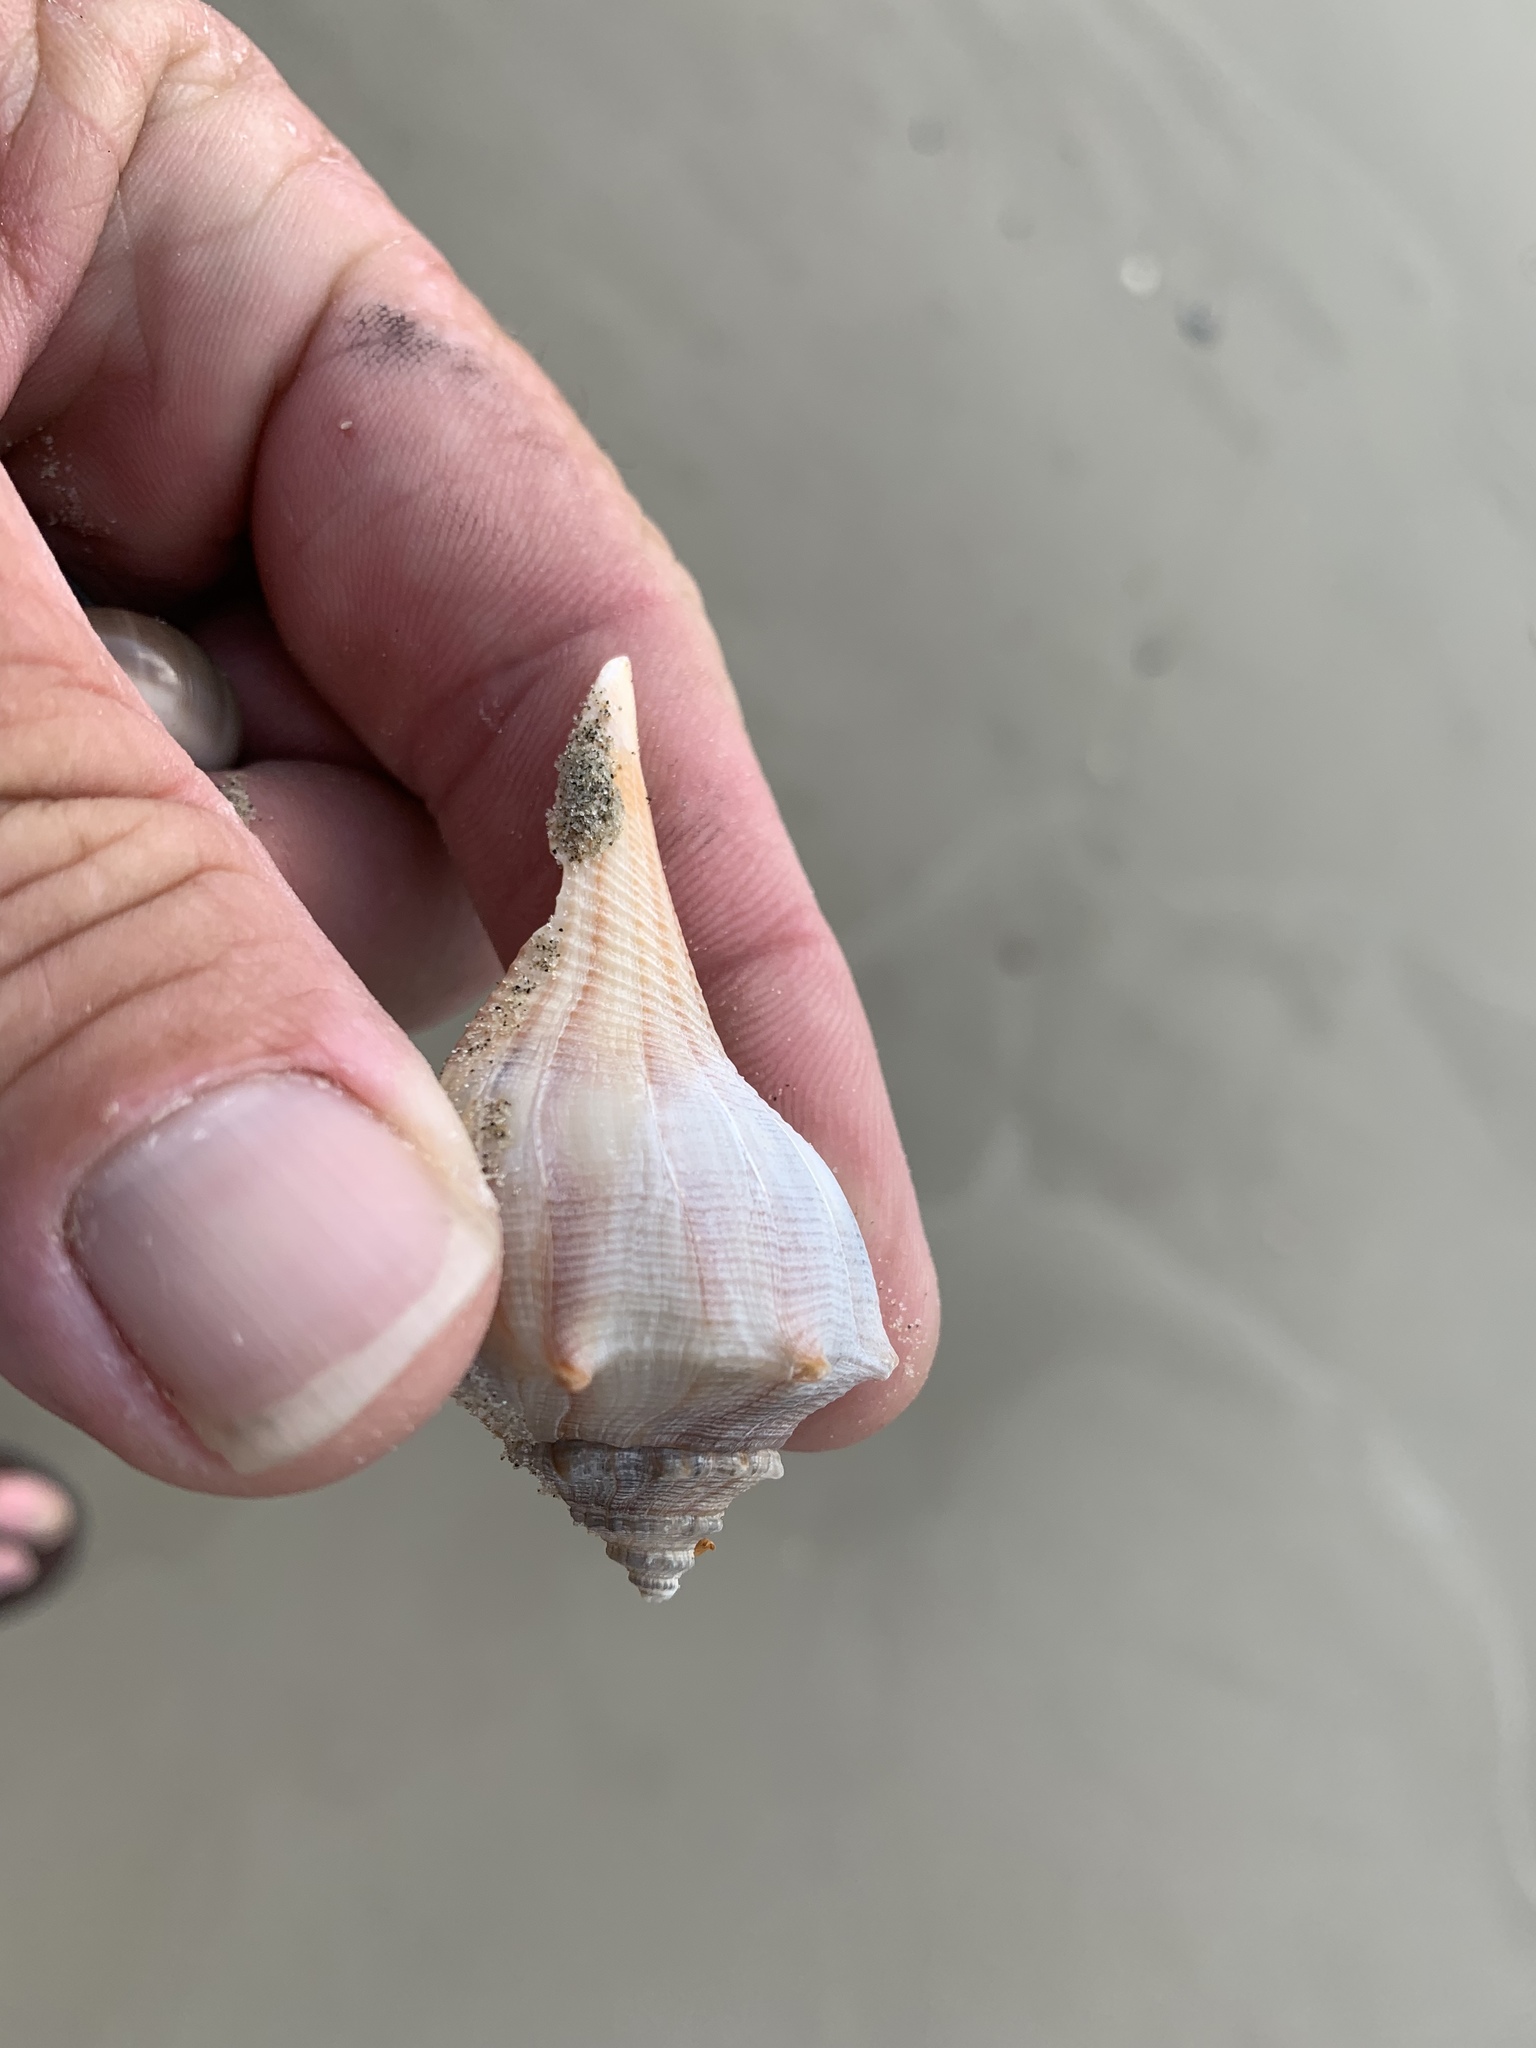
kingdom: Animalia
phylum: Mollusca
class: Gastropoda
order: Neogastropoda
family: Busyconidae
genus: Sinistrofulgur
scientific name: Sinistrofulgur pulleyi
